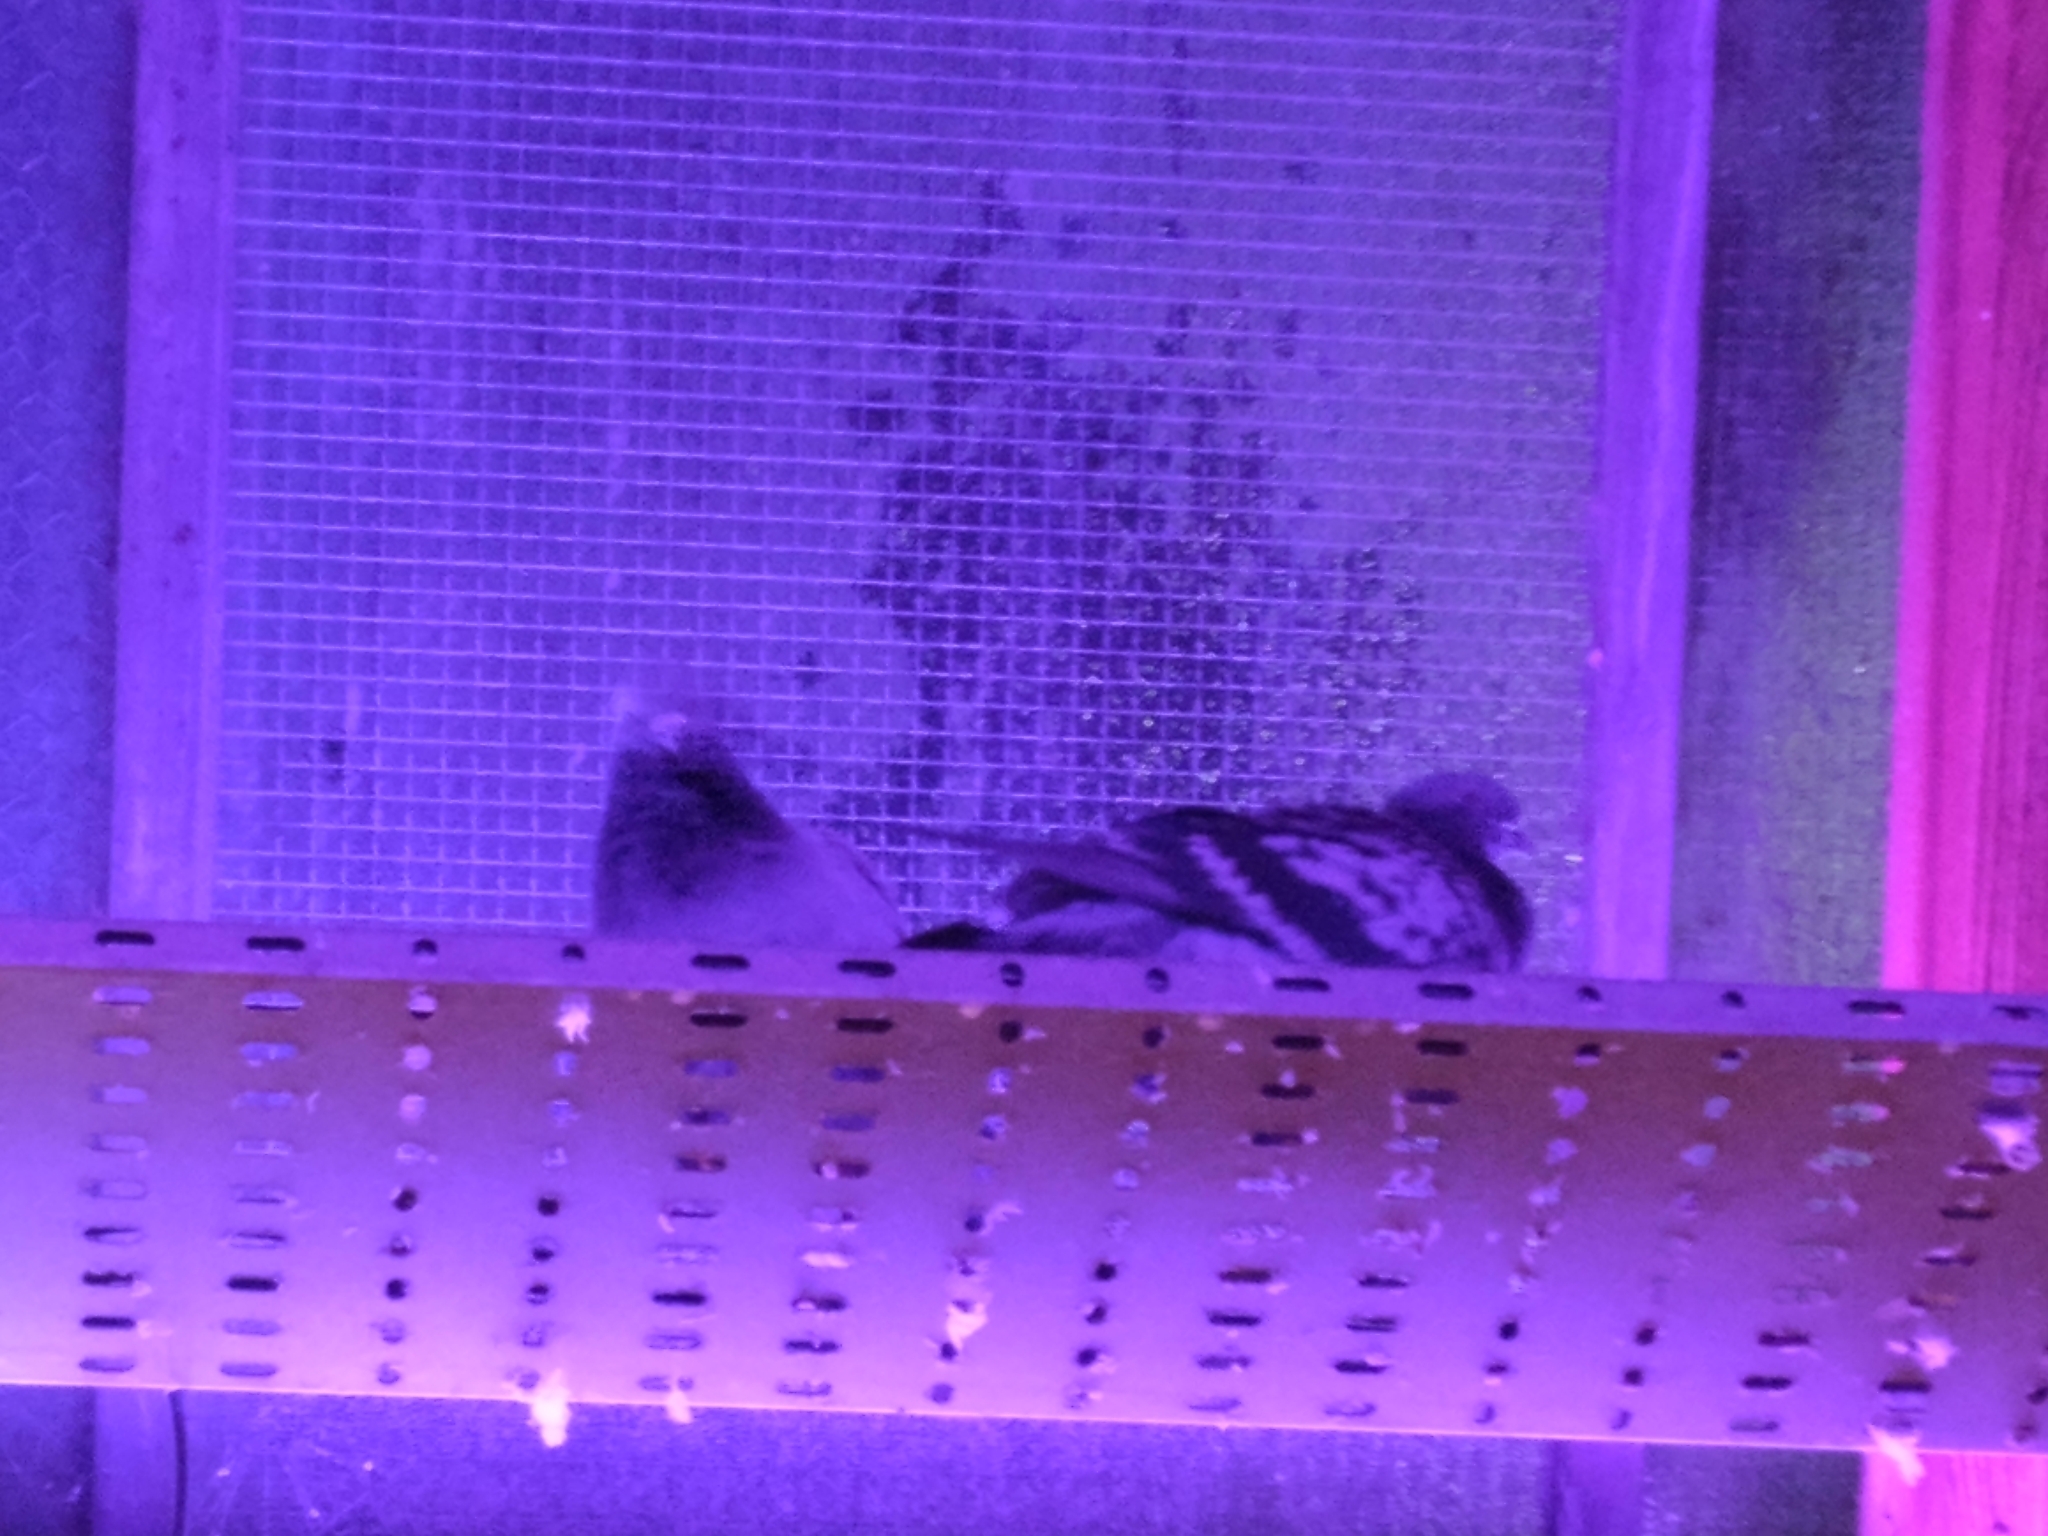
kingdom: Animalia
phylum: Chordata
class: Aves
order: Columbiformes
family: Columbidae
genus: Columba
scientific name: Columba livia
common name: Rock pigeon
